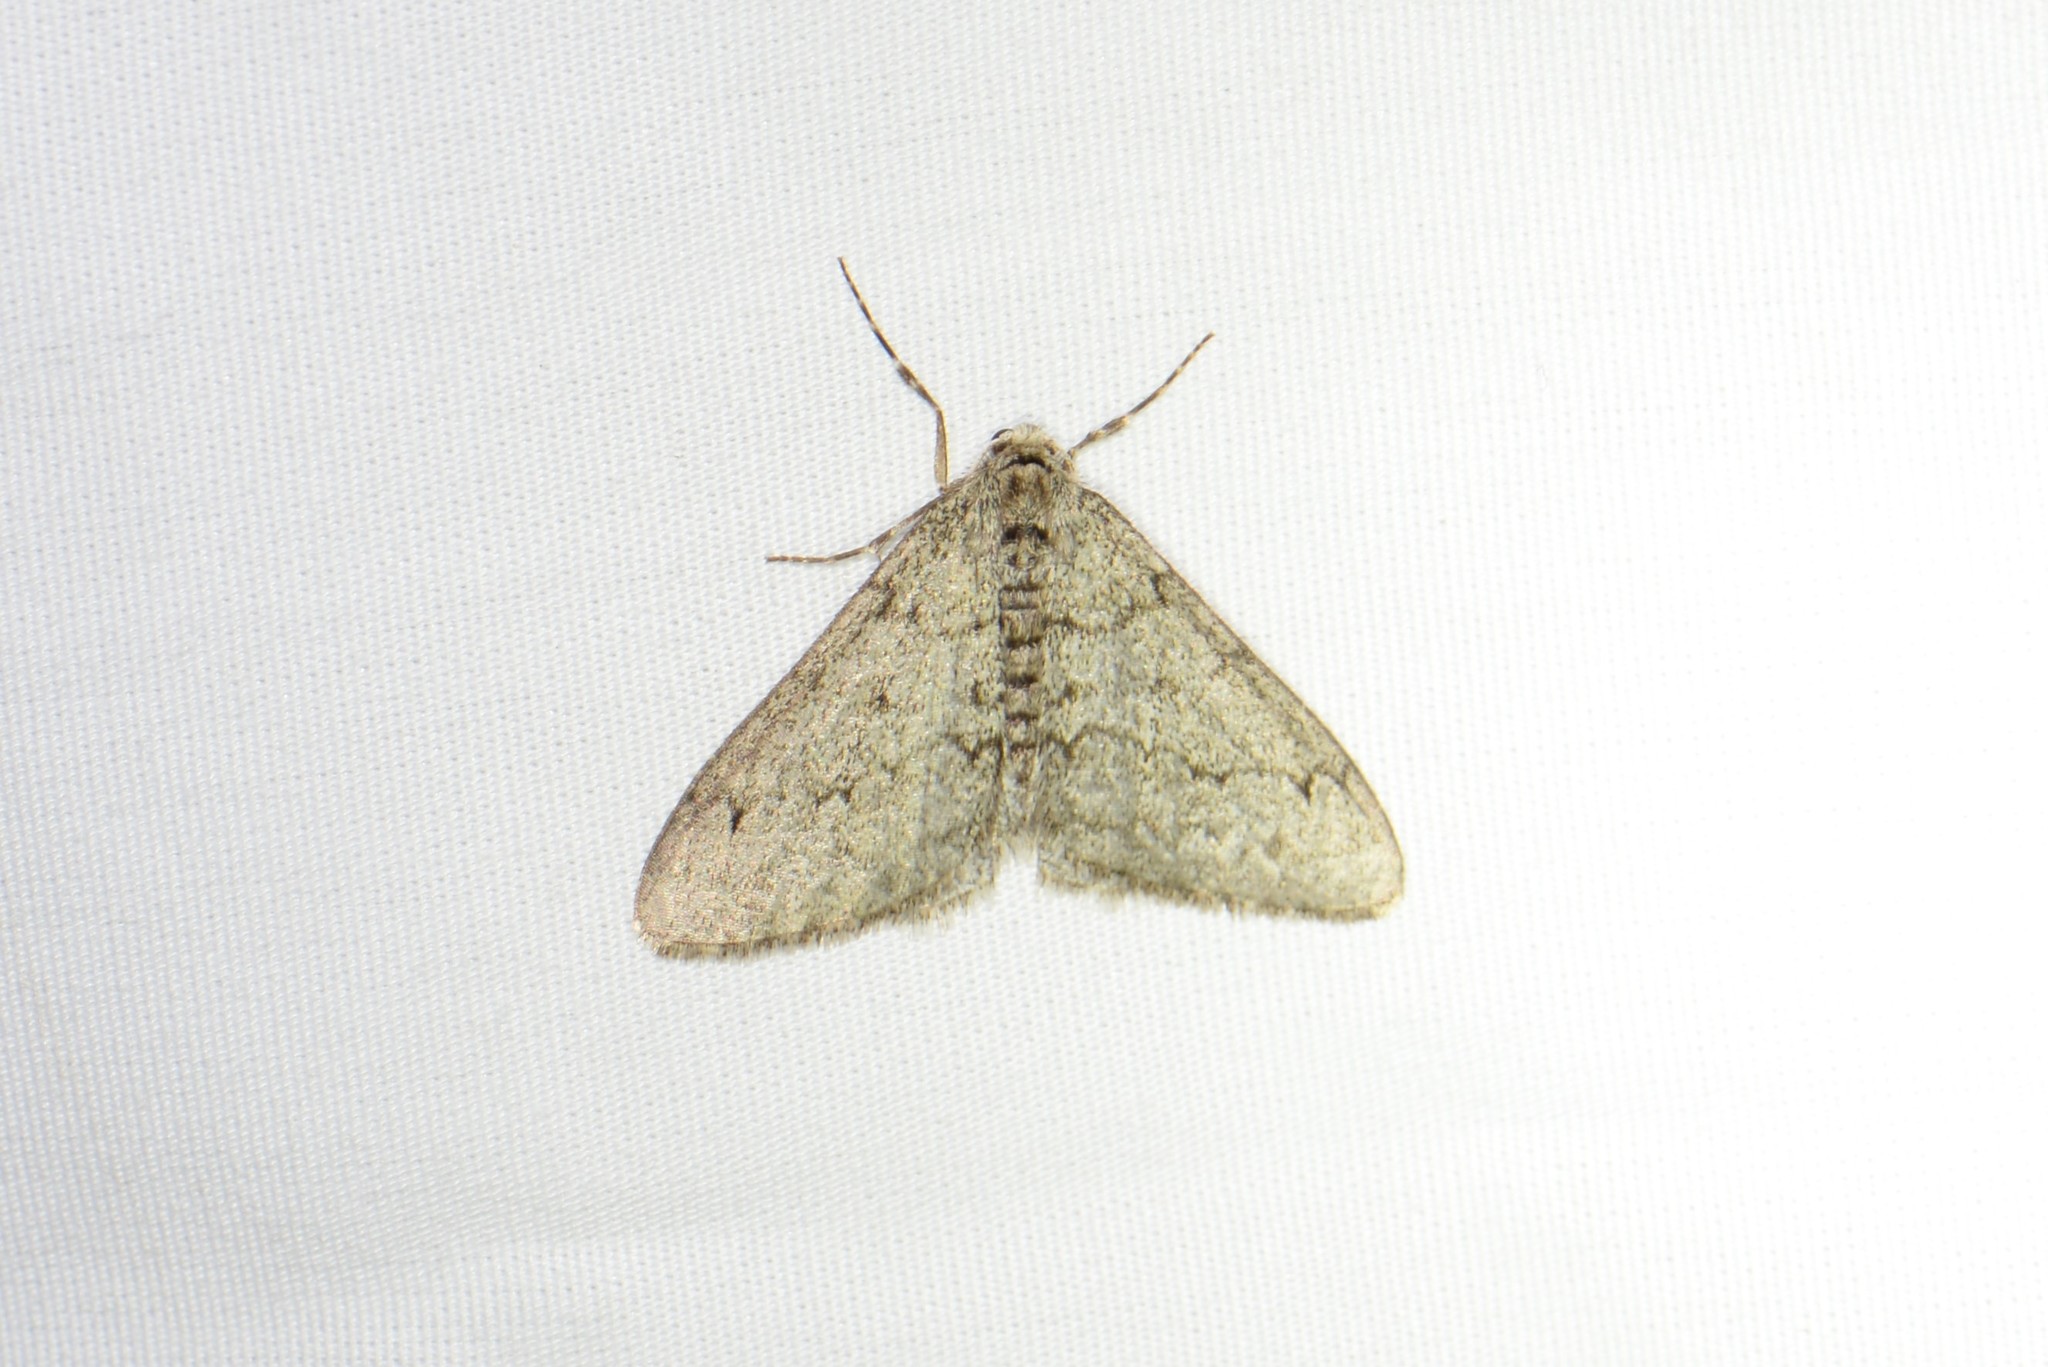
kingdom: Animalia
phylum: Arthropoda
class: Insecta
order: Lepidoptera
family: Geometridae
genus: Phigalia
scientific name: Phigalia strigataria
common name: Small phigalia
